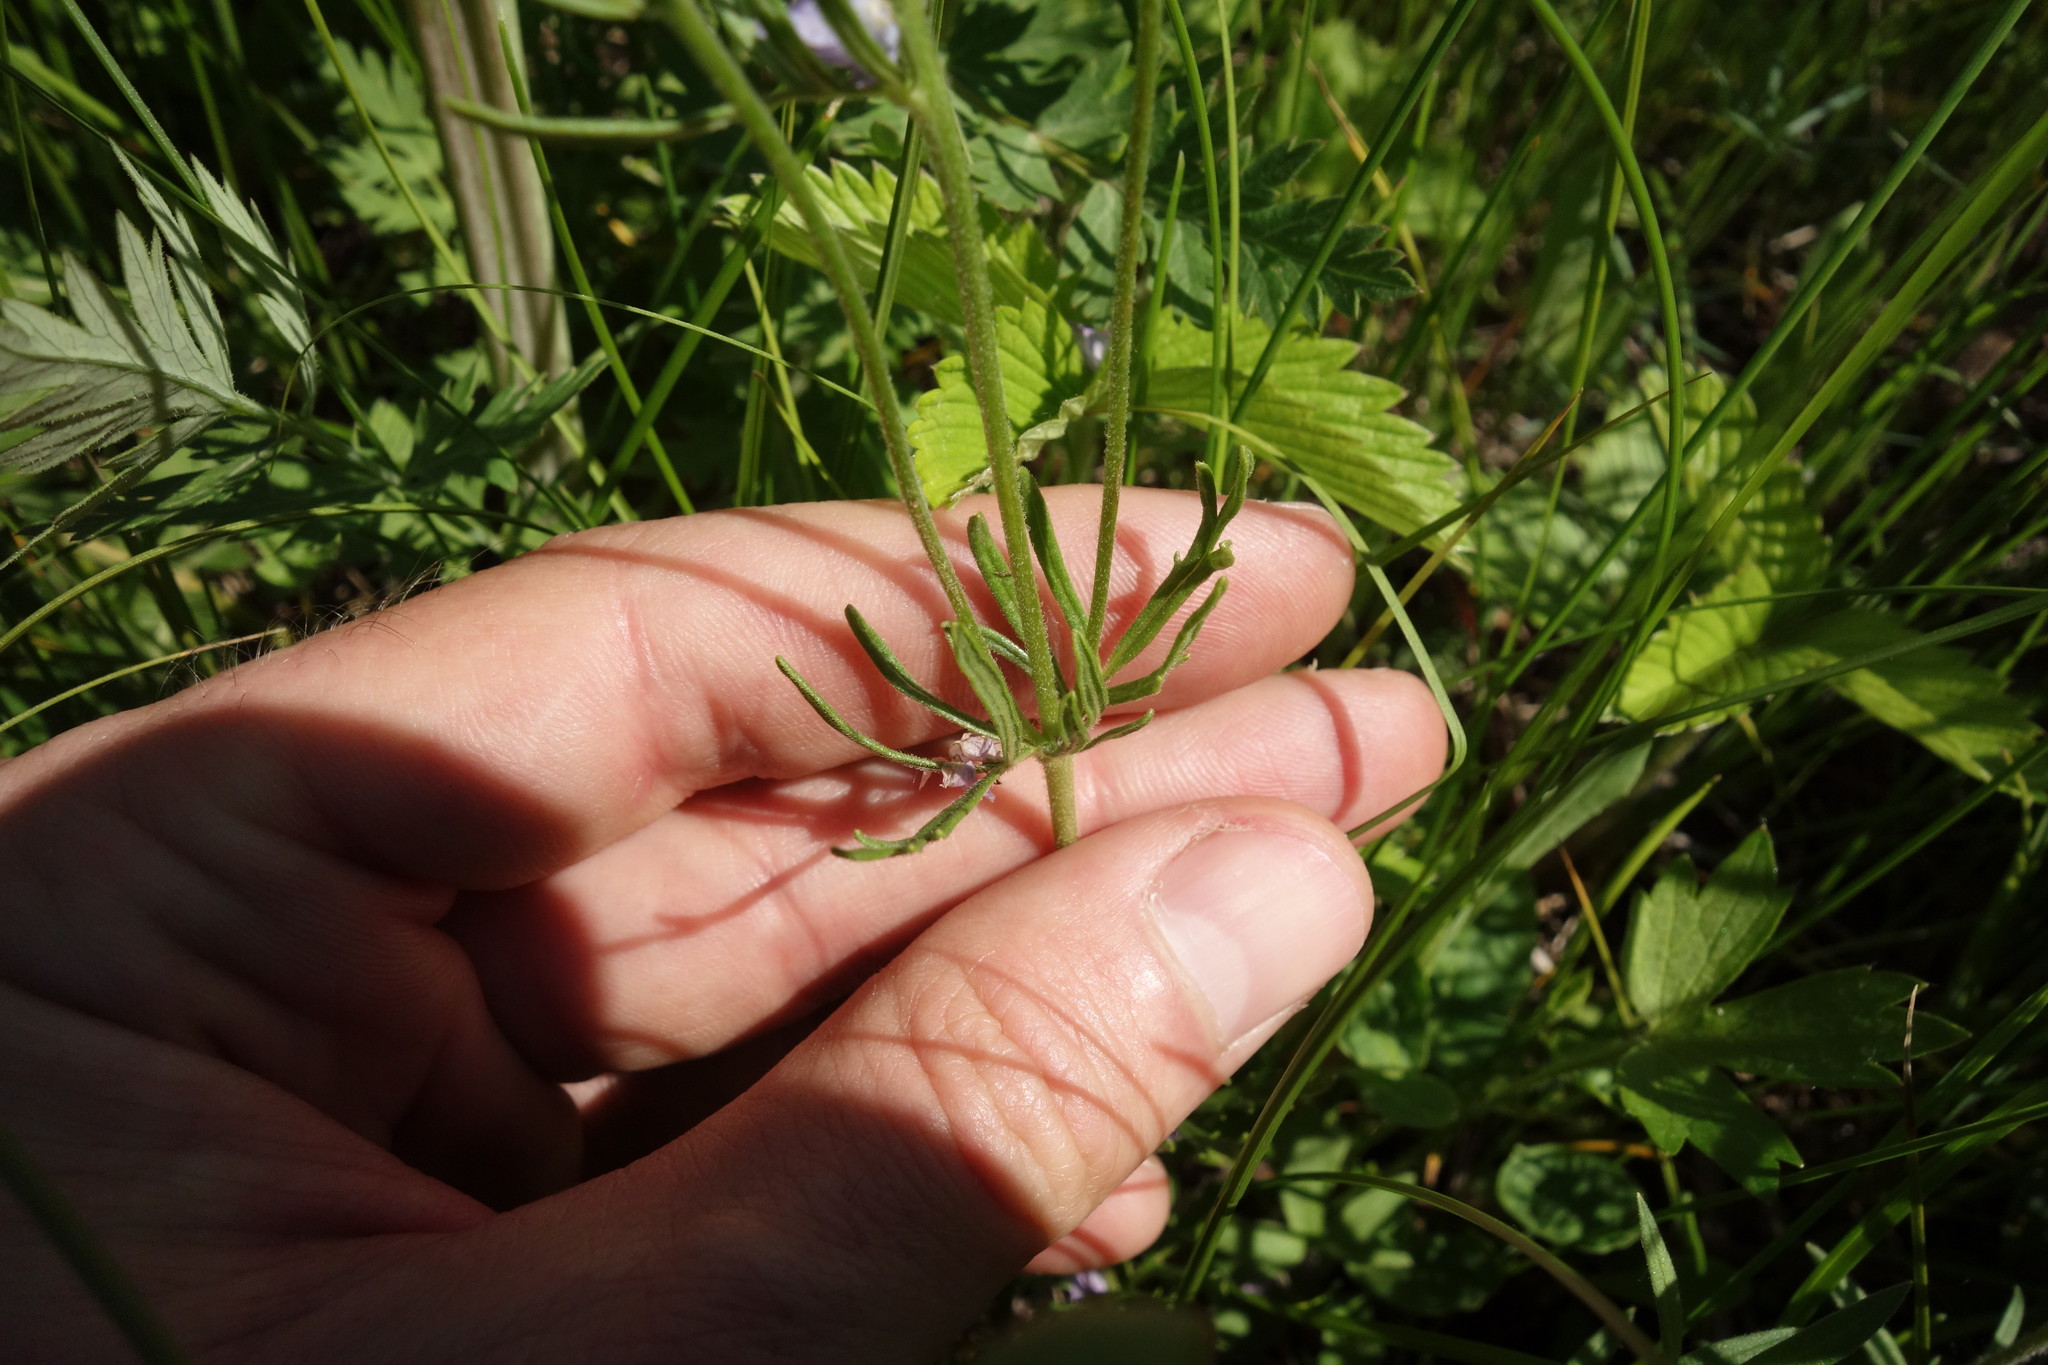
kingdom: Plantae
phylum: Tracheophyta
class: Magnoliopsida
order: Lamiales
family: Plantaginaceae
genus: Veronica
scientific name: Veronica austriaca
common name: Large speedwell
